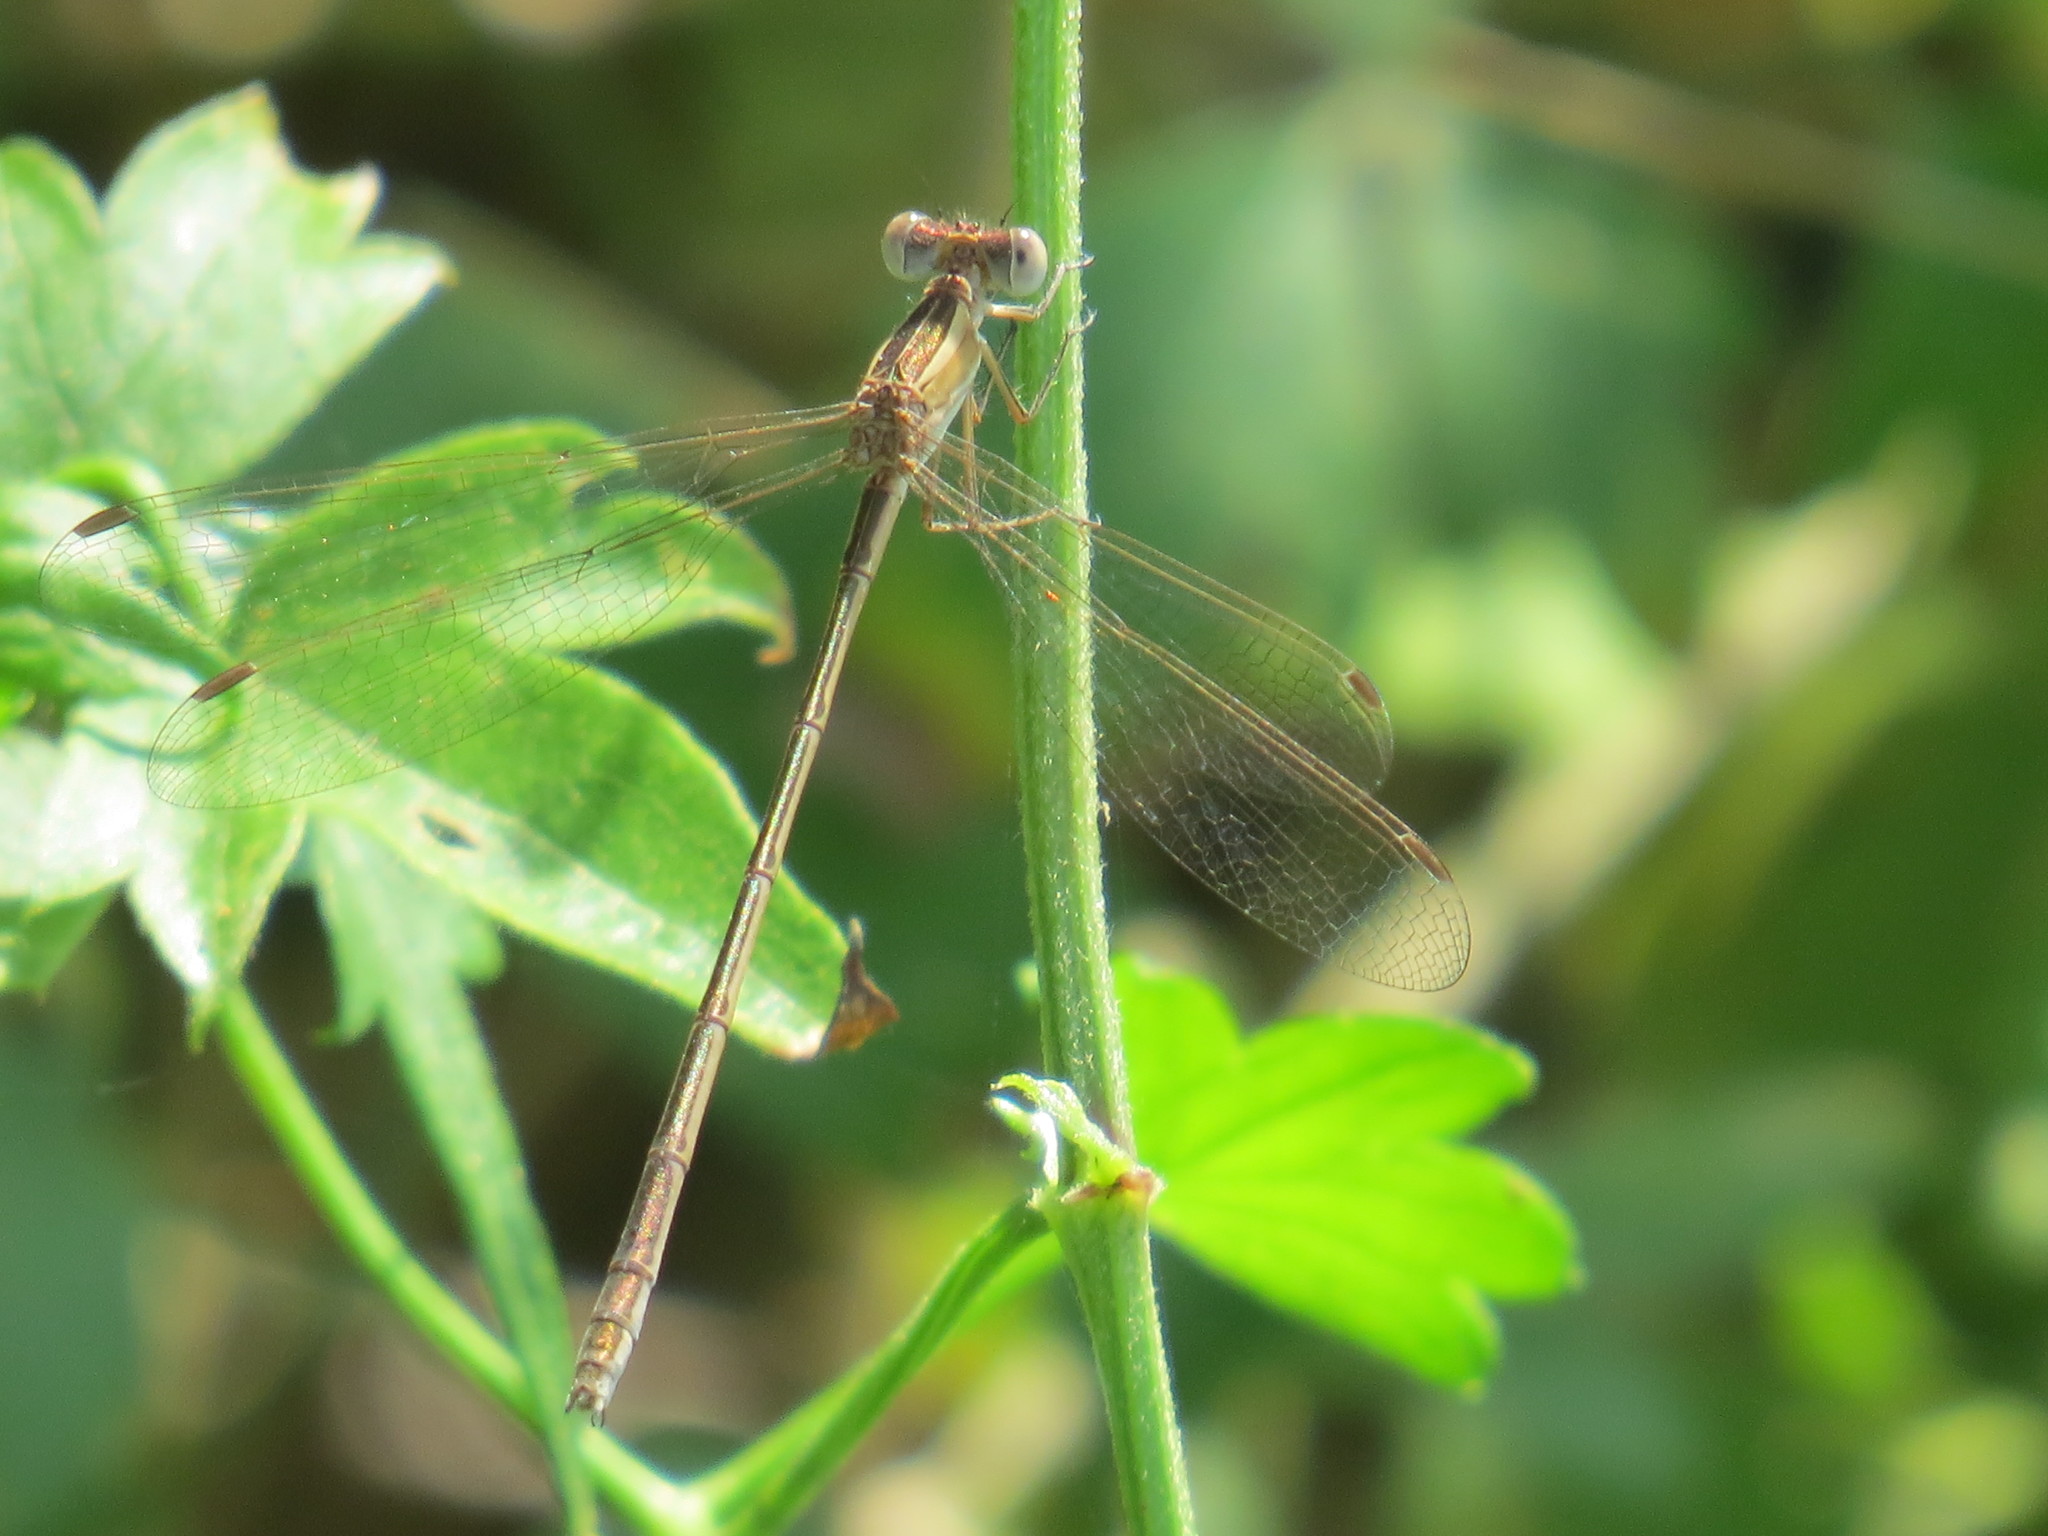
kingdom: Animalia
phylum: Arthropoda
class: Insecta
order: Odonata
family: Lestidae
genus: Lestes
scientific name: Lestes alacer
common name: Plateau spreadwing
